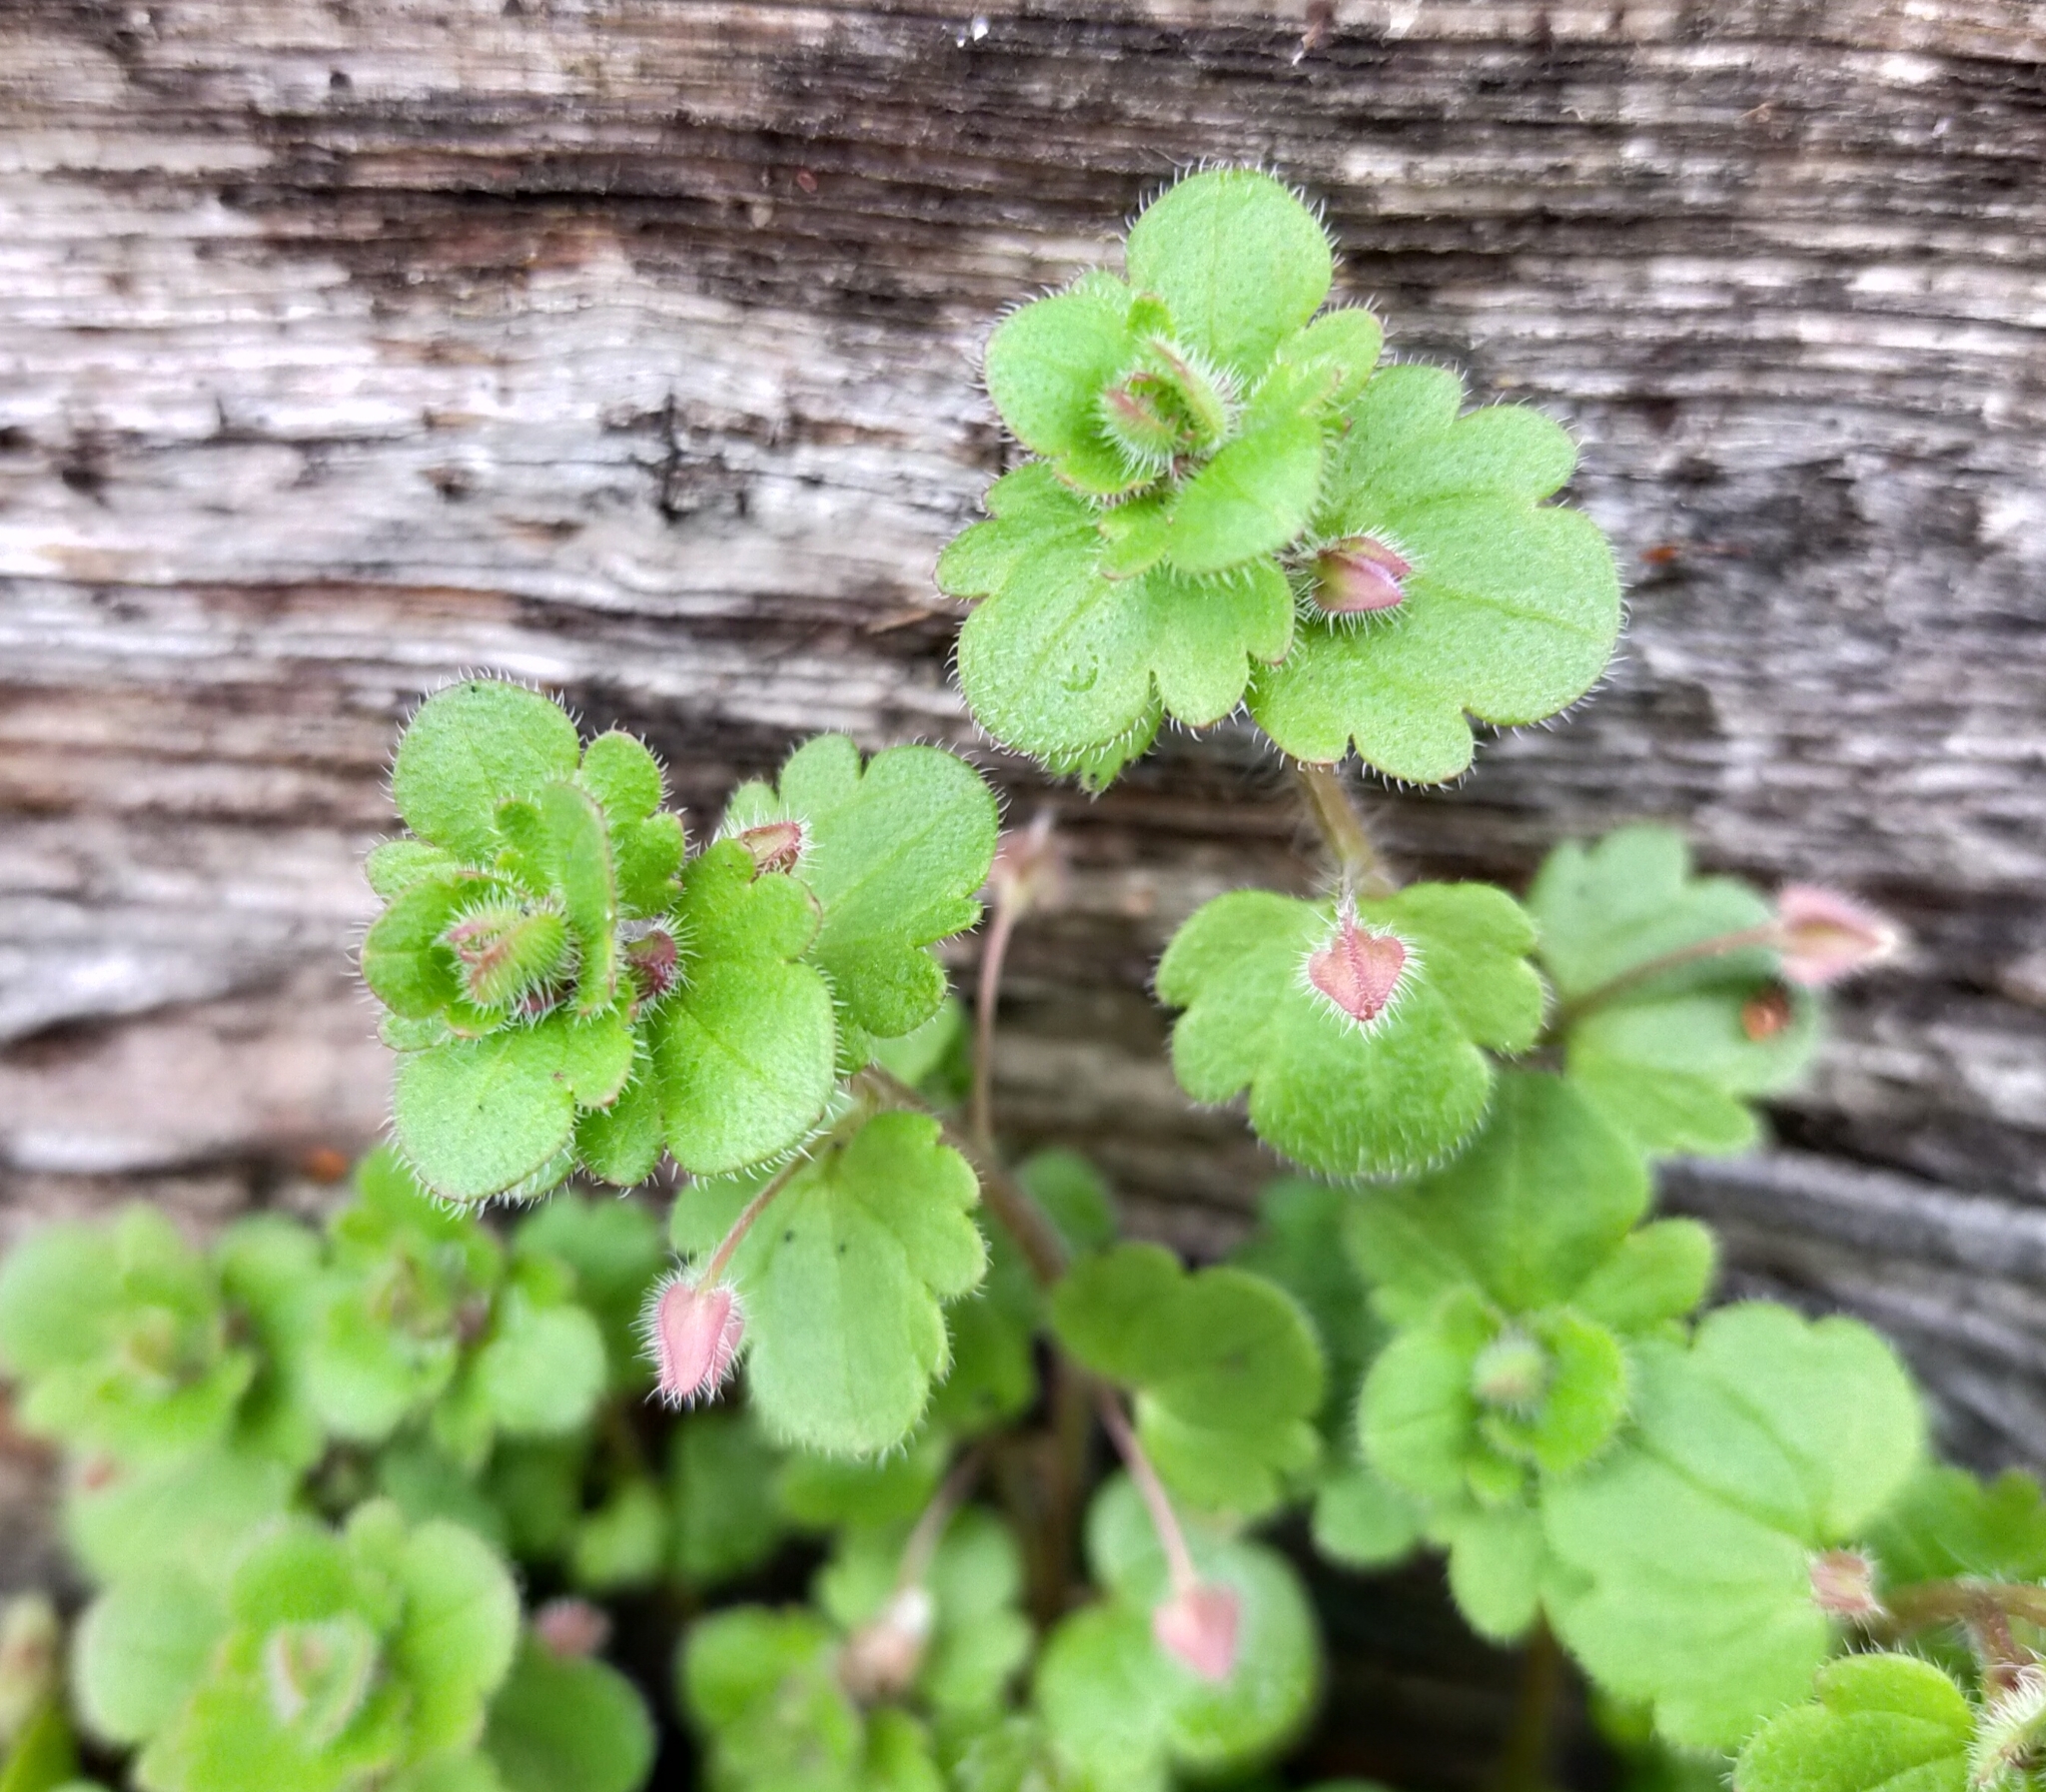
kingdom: Plantae
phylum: Tracheophyta
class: Magnoliopsida
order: Lamiales
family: Plantaginaceae
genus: Veronica
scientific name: Veronica sublobata
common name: False ivy-leaved speedwell
